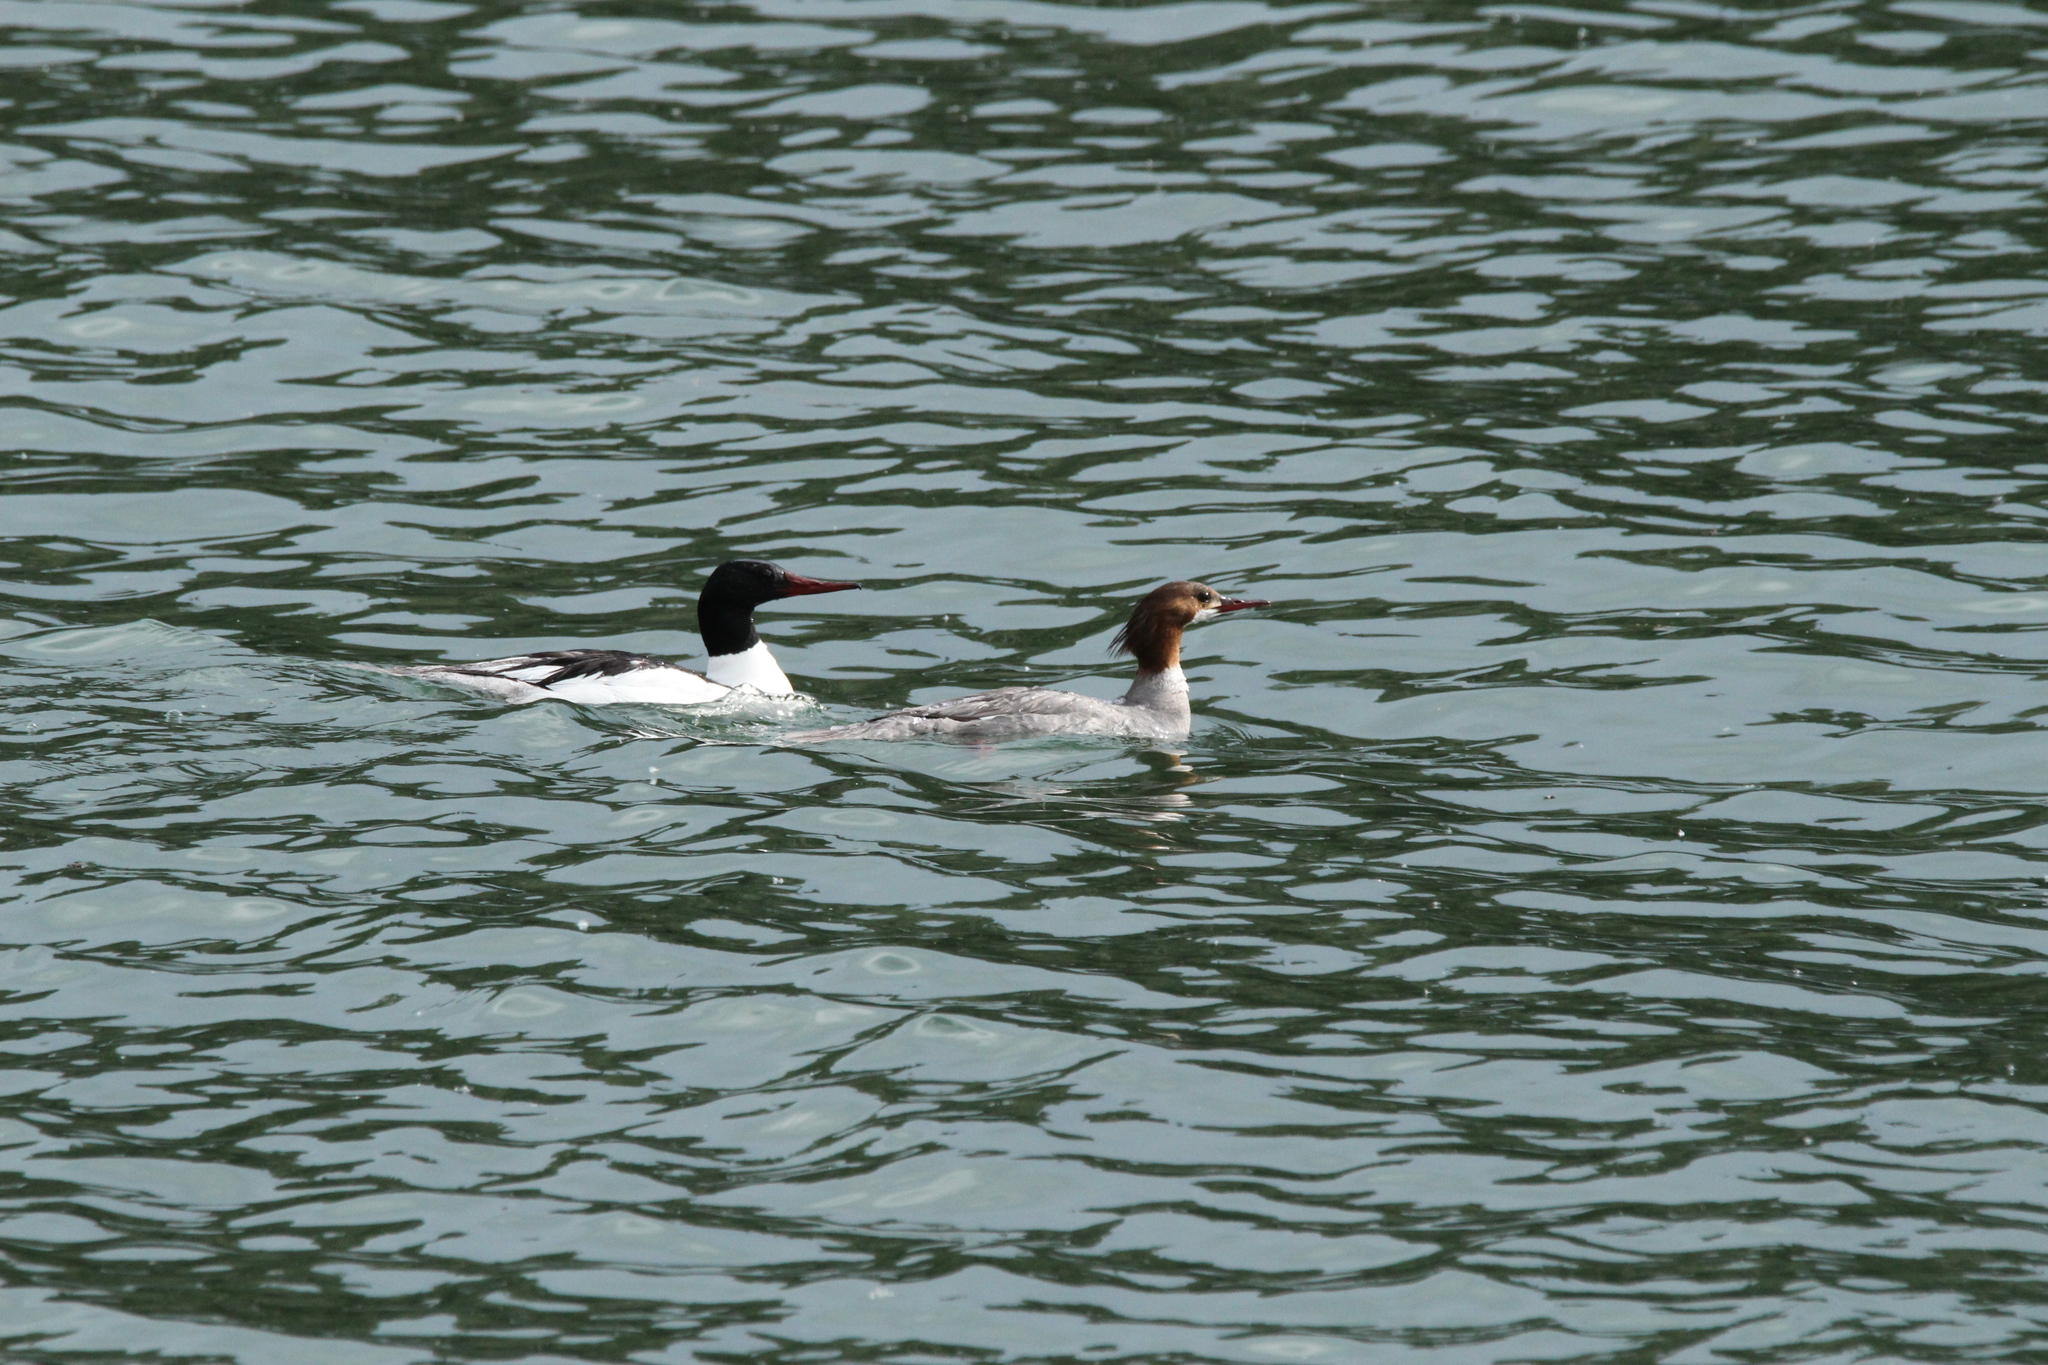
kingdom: Animalia
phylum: Chordata
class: Aves
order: Anseriformes
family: Anatidae
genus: Mergus
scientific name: Mergus merganser
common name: Common merganser
